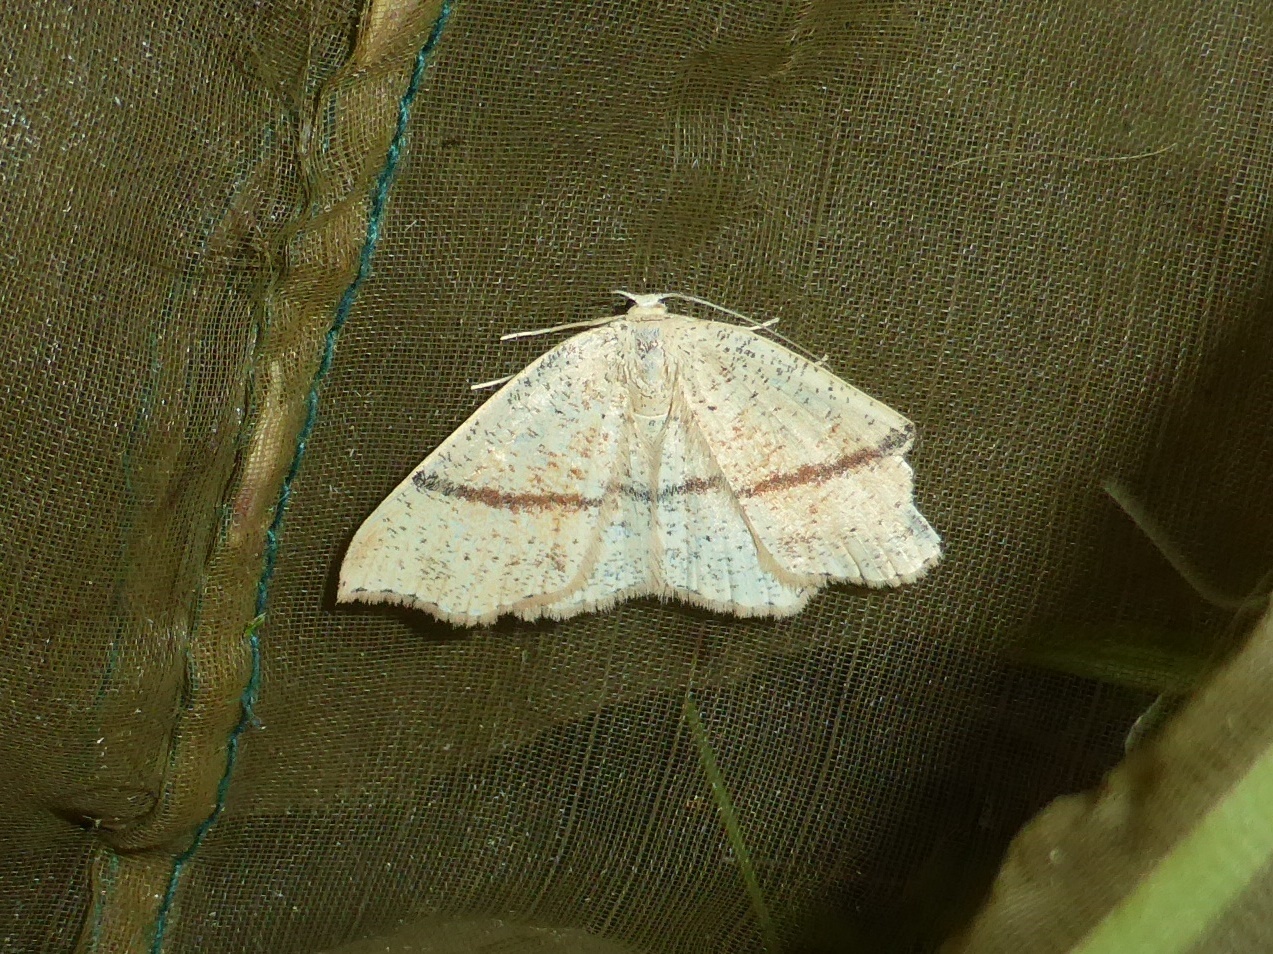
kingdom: Animalia
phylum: Arthropoda
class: Insecta
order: Lepidoptera
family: Geometridae
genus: Cyclophora
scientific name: Cyclophora punctaria
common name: Maiden's blush
